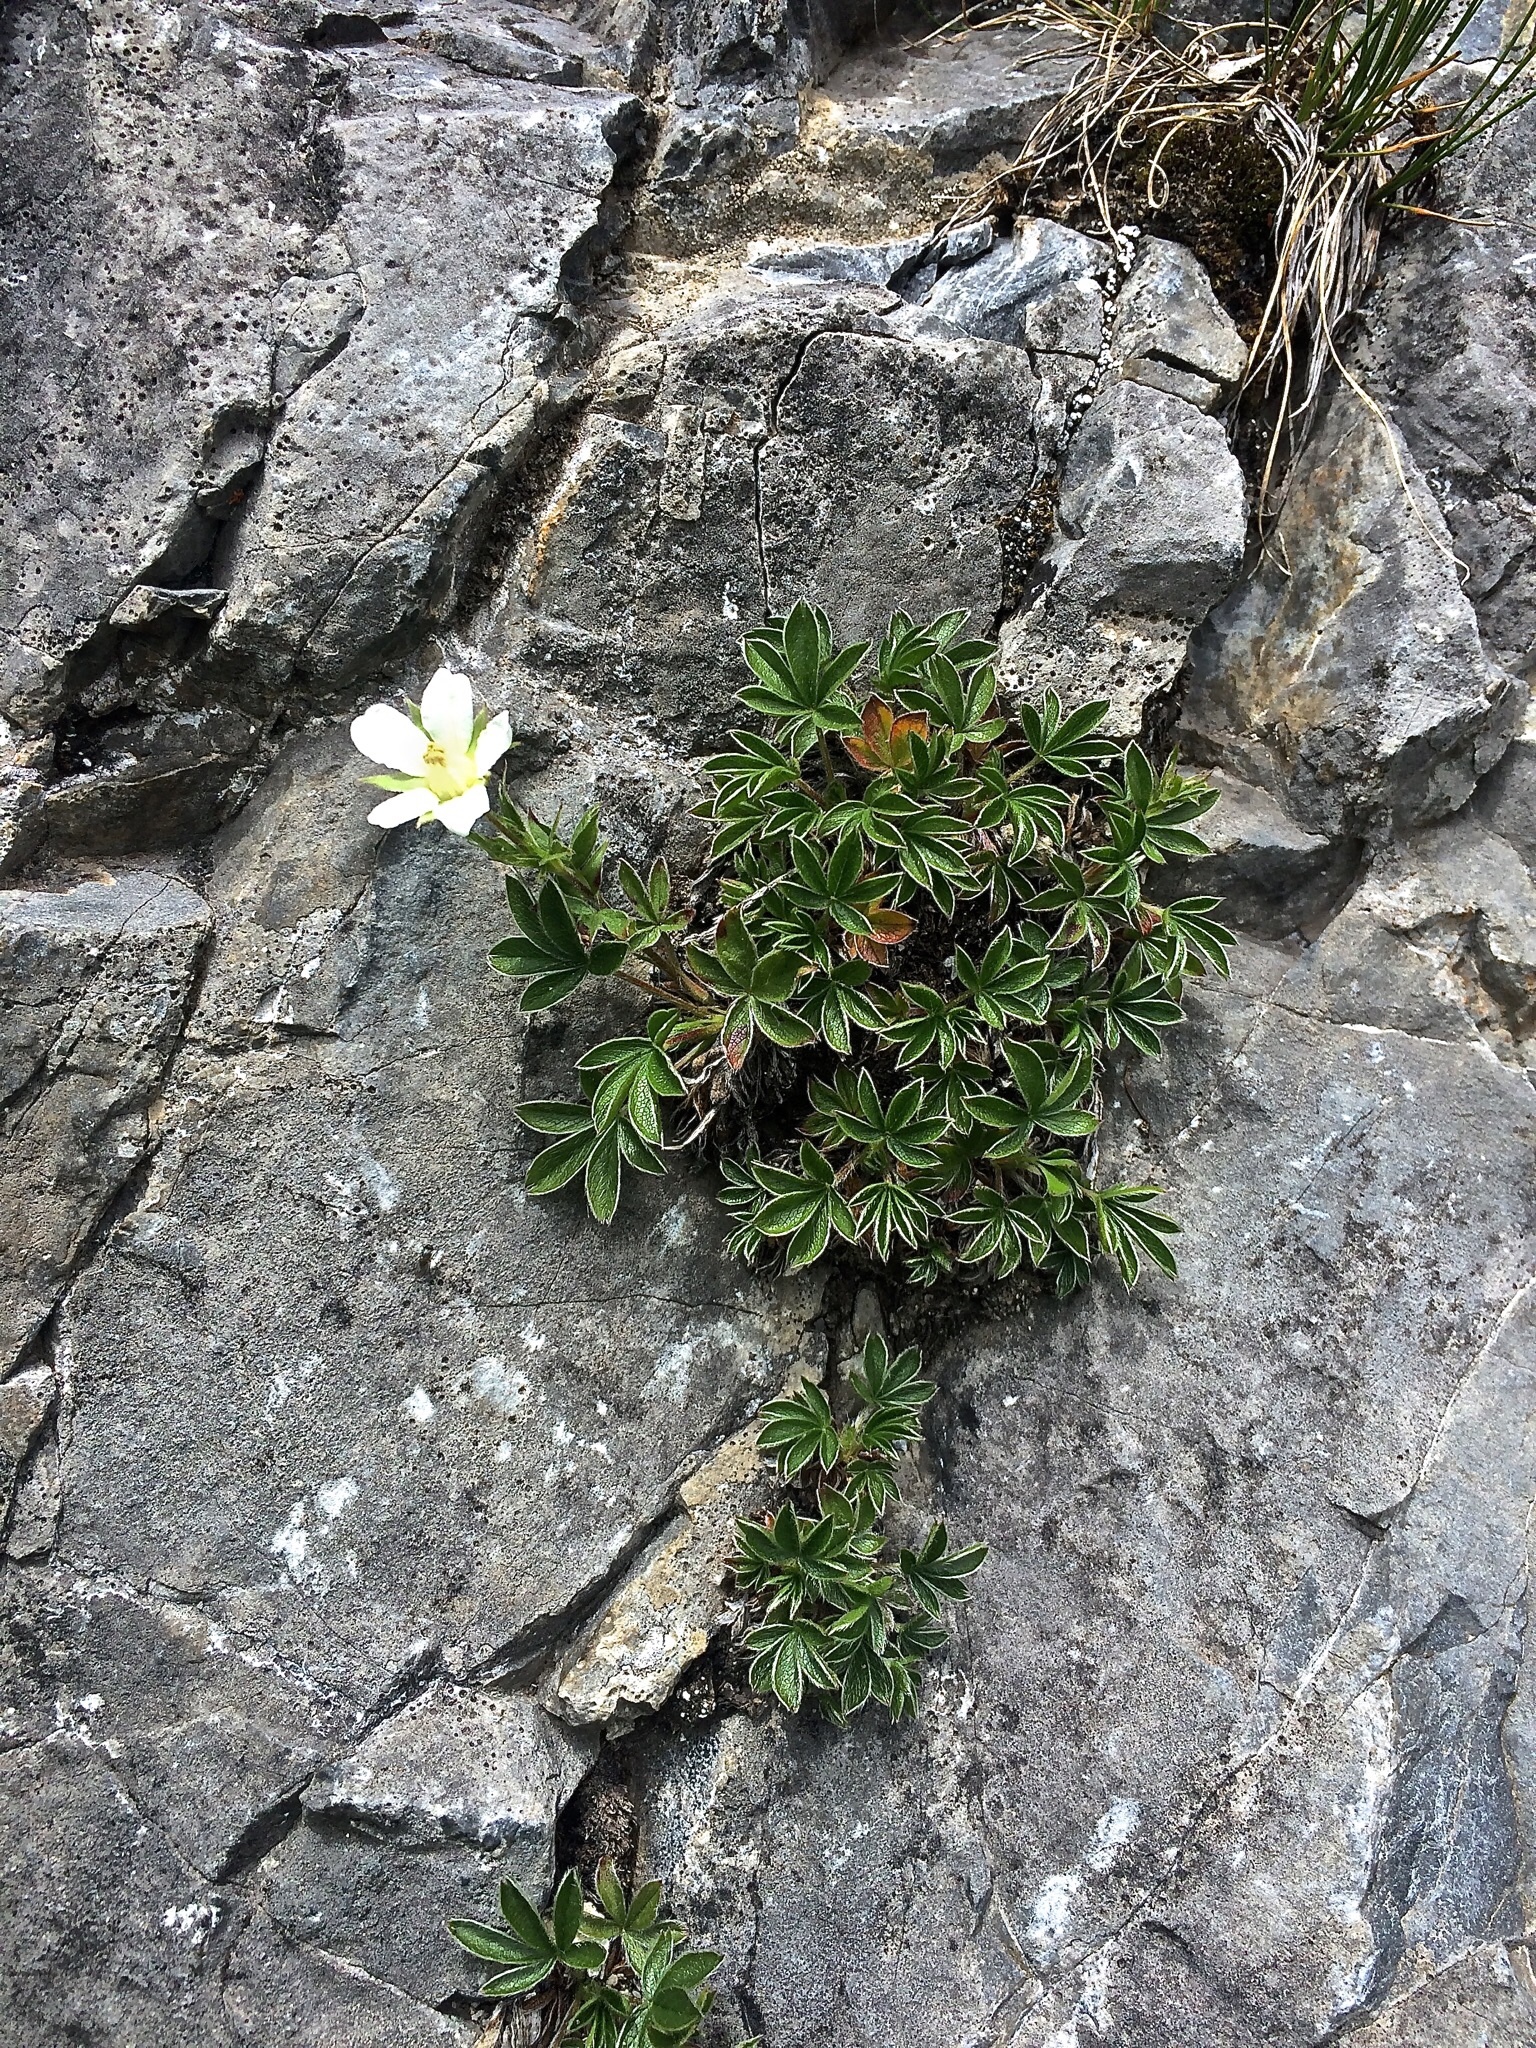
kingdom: Plantae
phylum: Tracheophyta
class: Magnoliopsida
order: Rosales
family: Rosaceae
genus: Potentilla
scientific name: Potentilla caulescens
